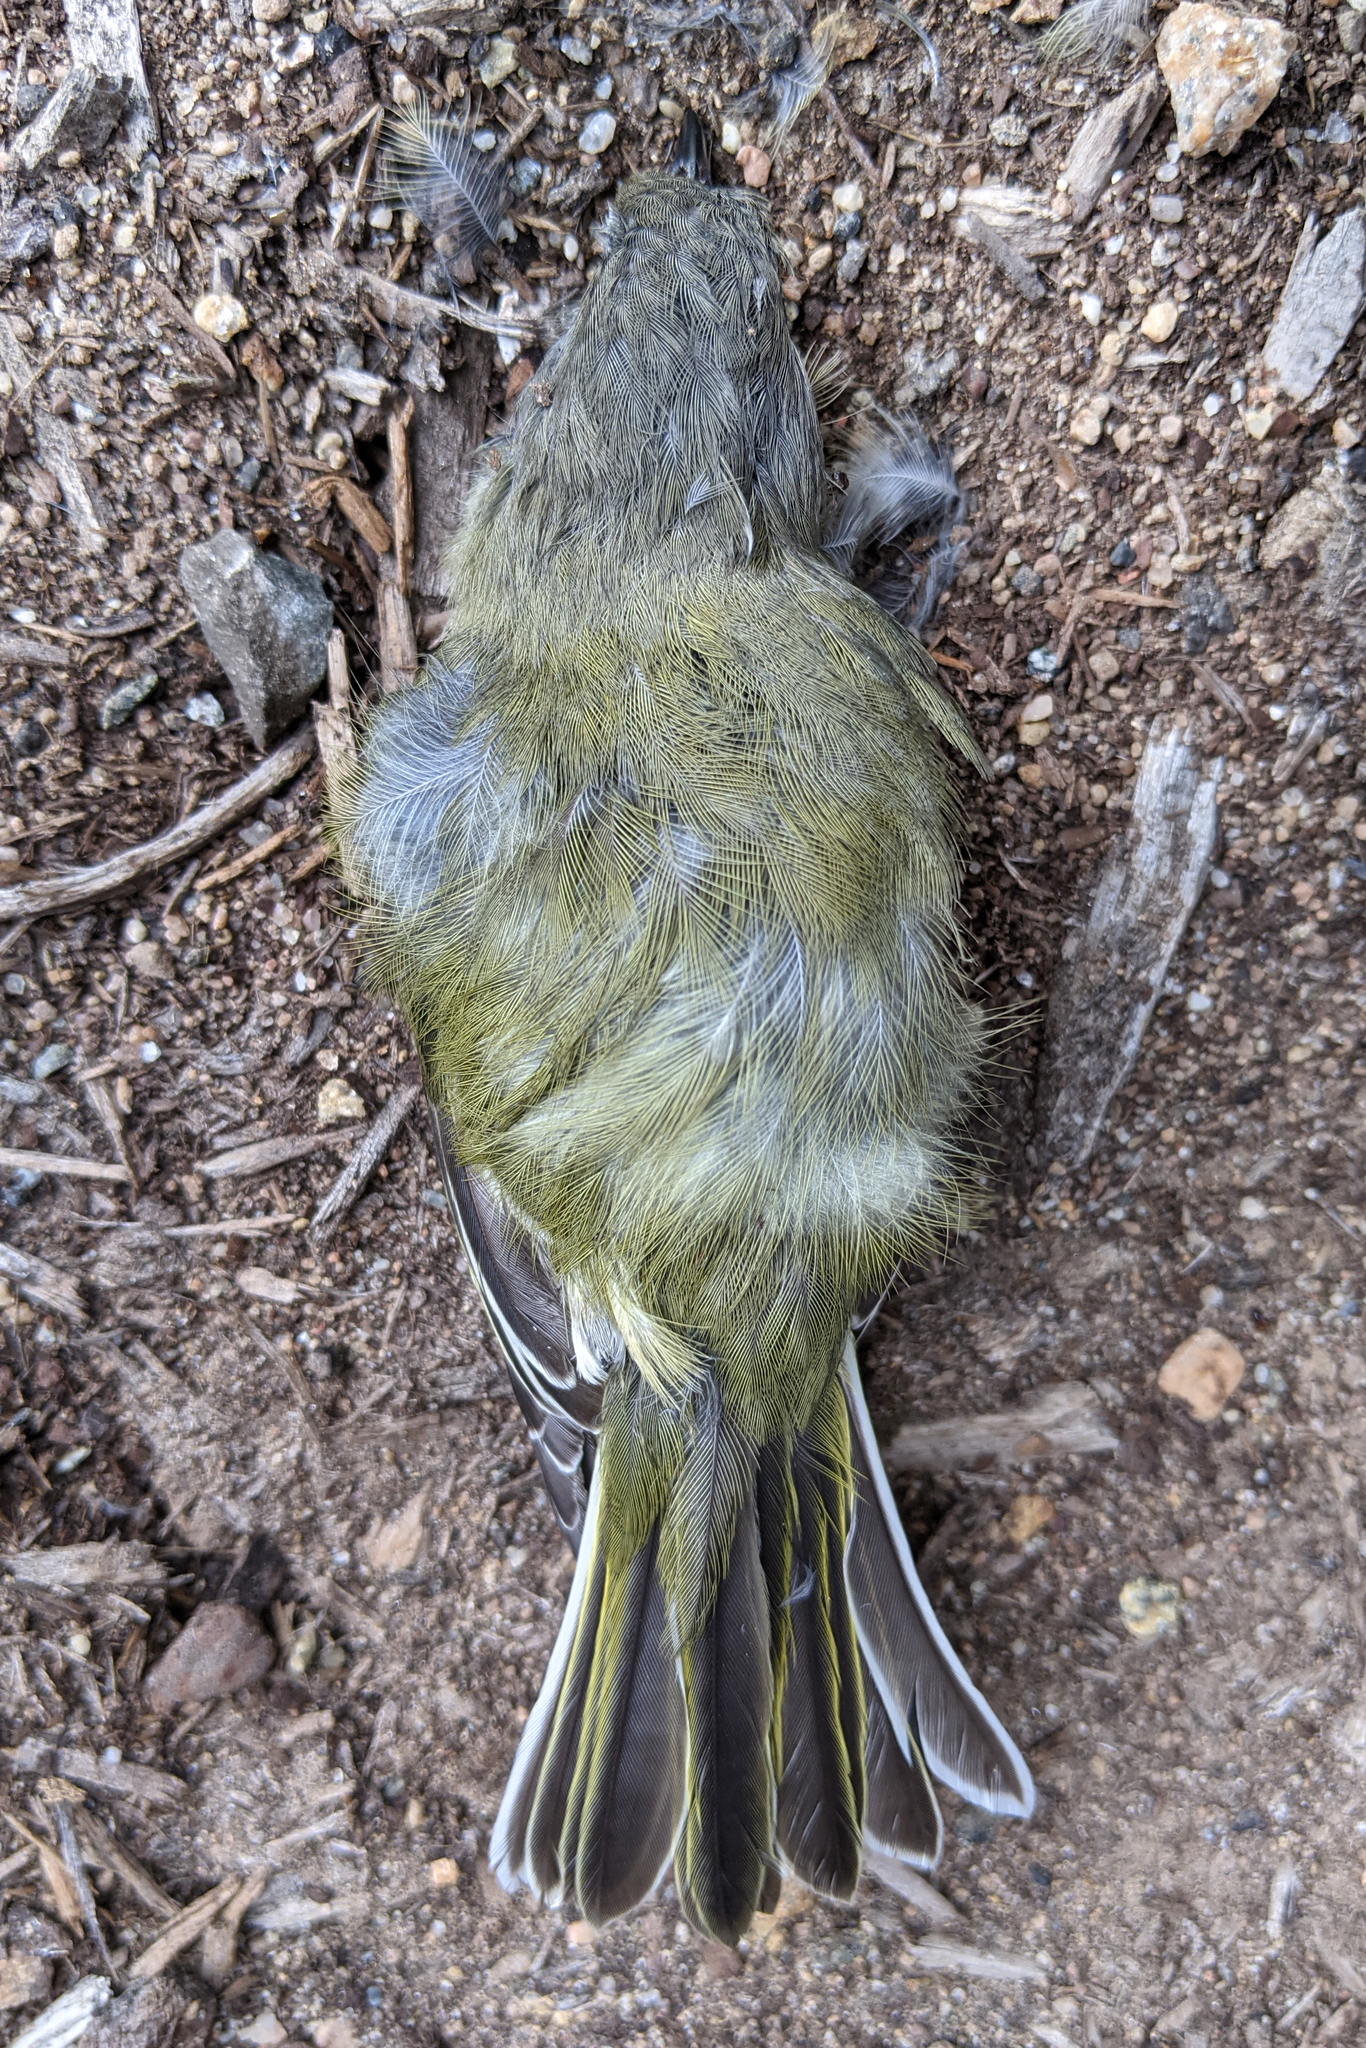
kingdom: Animalia
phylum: Chordata
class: Aves
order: Passeriformes
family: Vireonidae
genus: Vireo
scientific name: Vireo solitarius
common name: Blue-headed vireo
